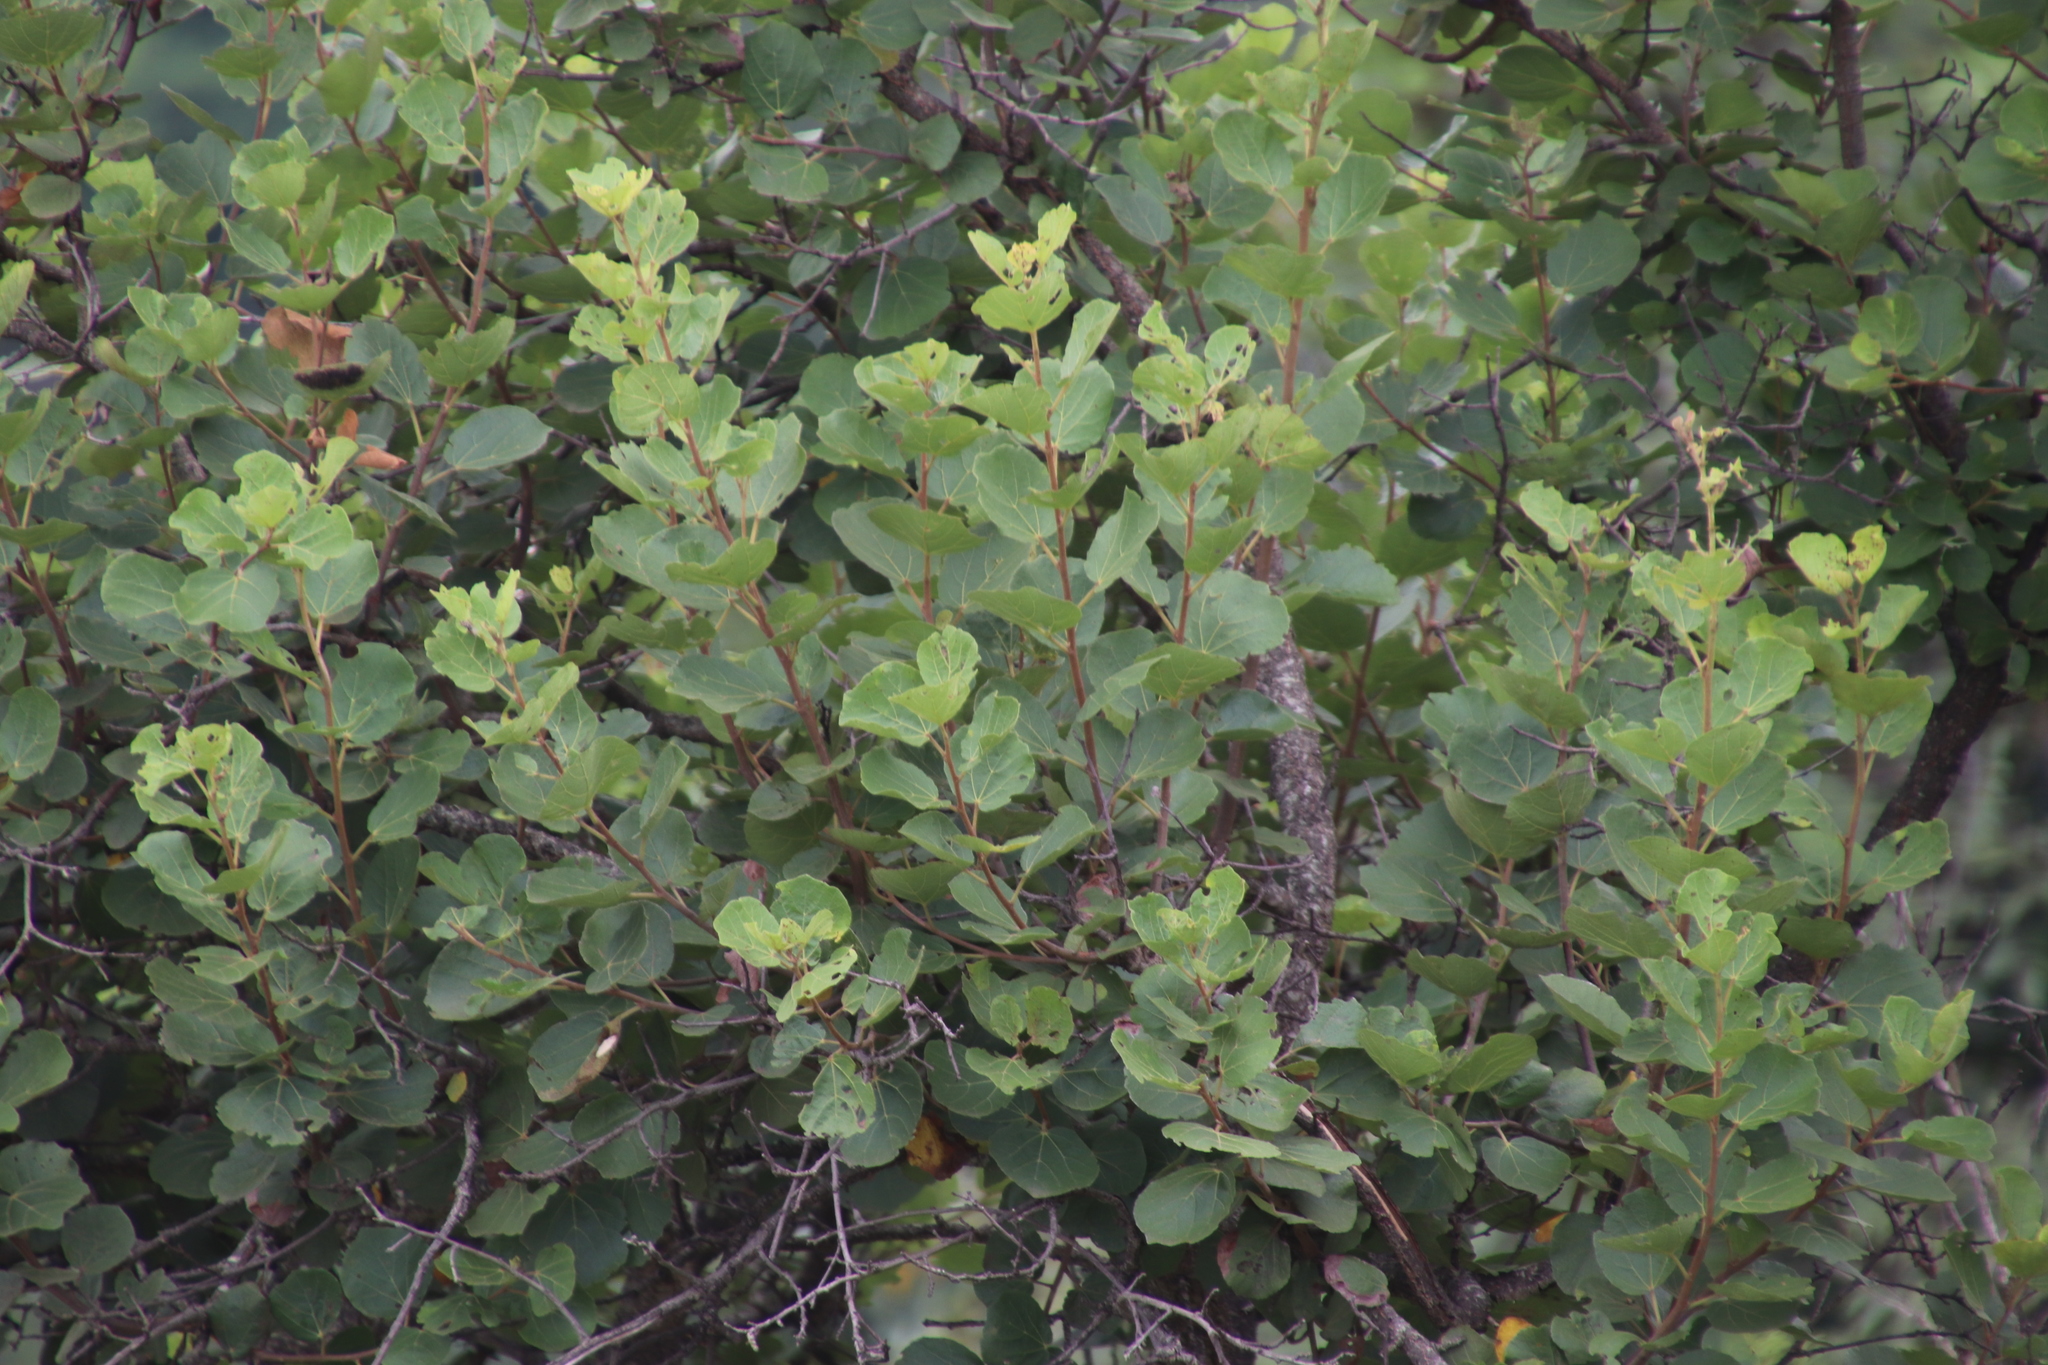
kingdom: Plantae
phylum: Tracheophyta
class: Magnoliopsida
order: Malvales
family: Malvaceae
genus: Dombeya
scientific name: Dombeya rotundifolia
